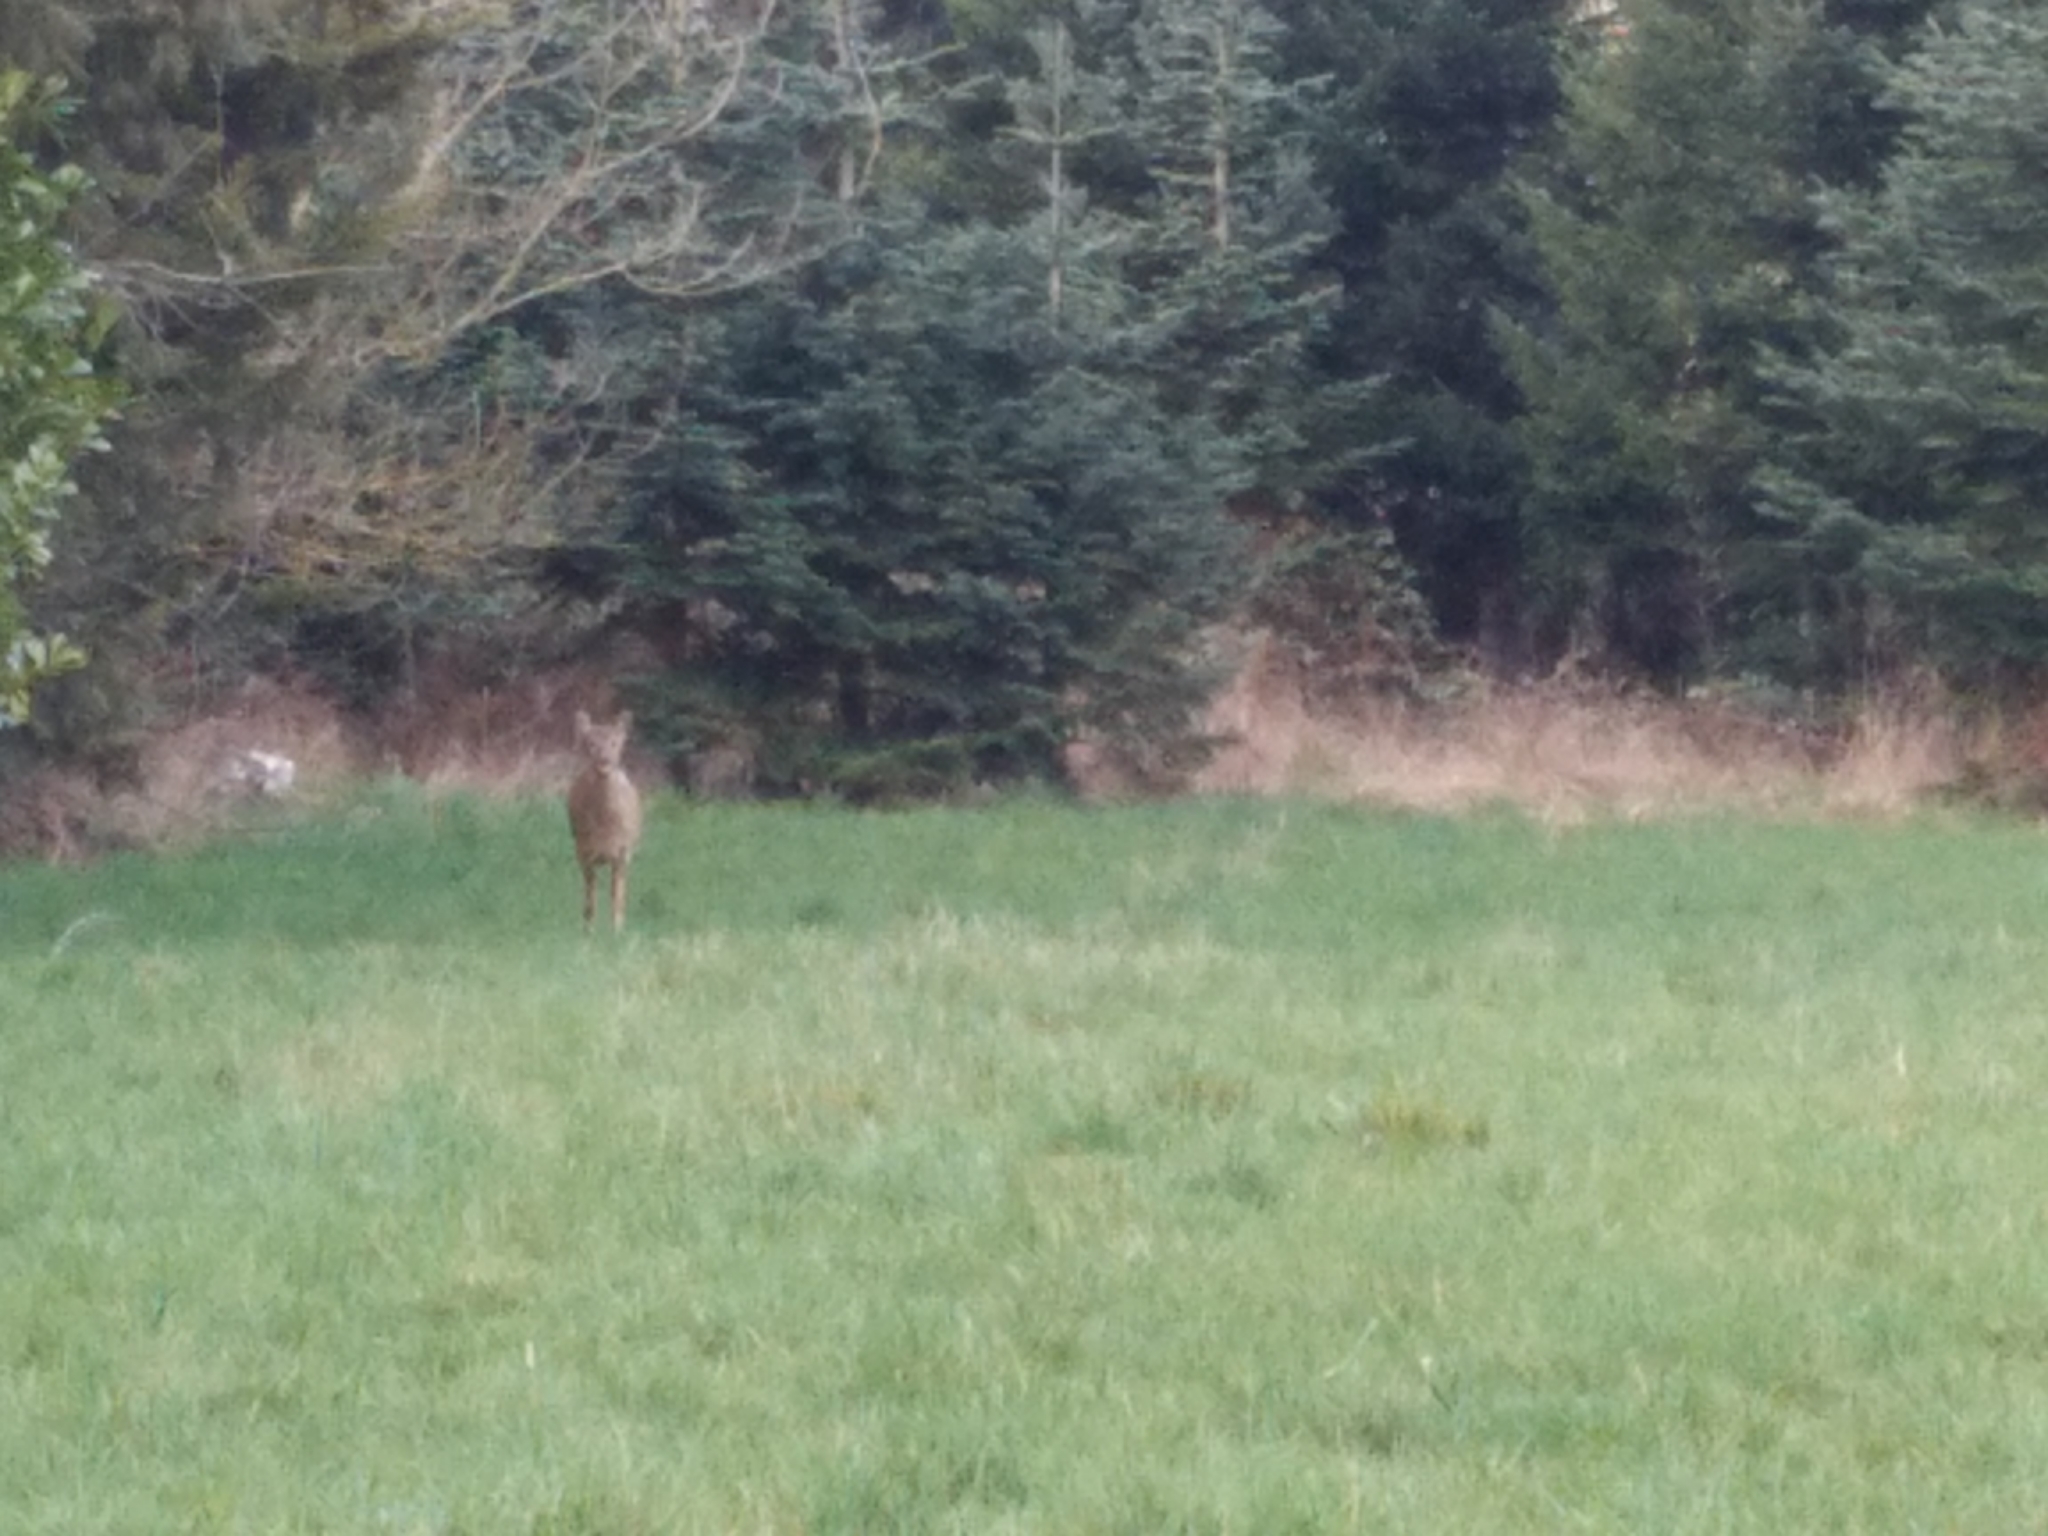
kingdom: Animalia
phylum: Chordata
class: Mammalia
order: Artiodactyla
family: Cervidae
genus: Capreolus
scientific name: Capreolus capreolus
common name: Western roe deer
